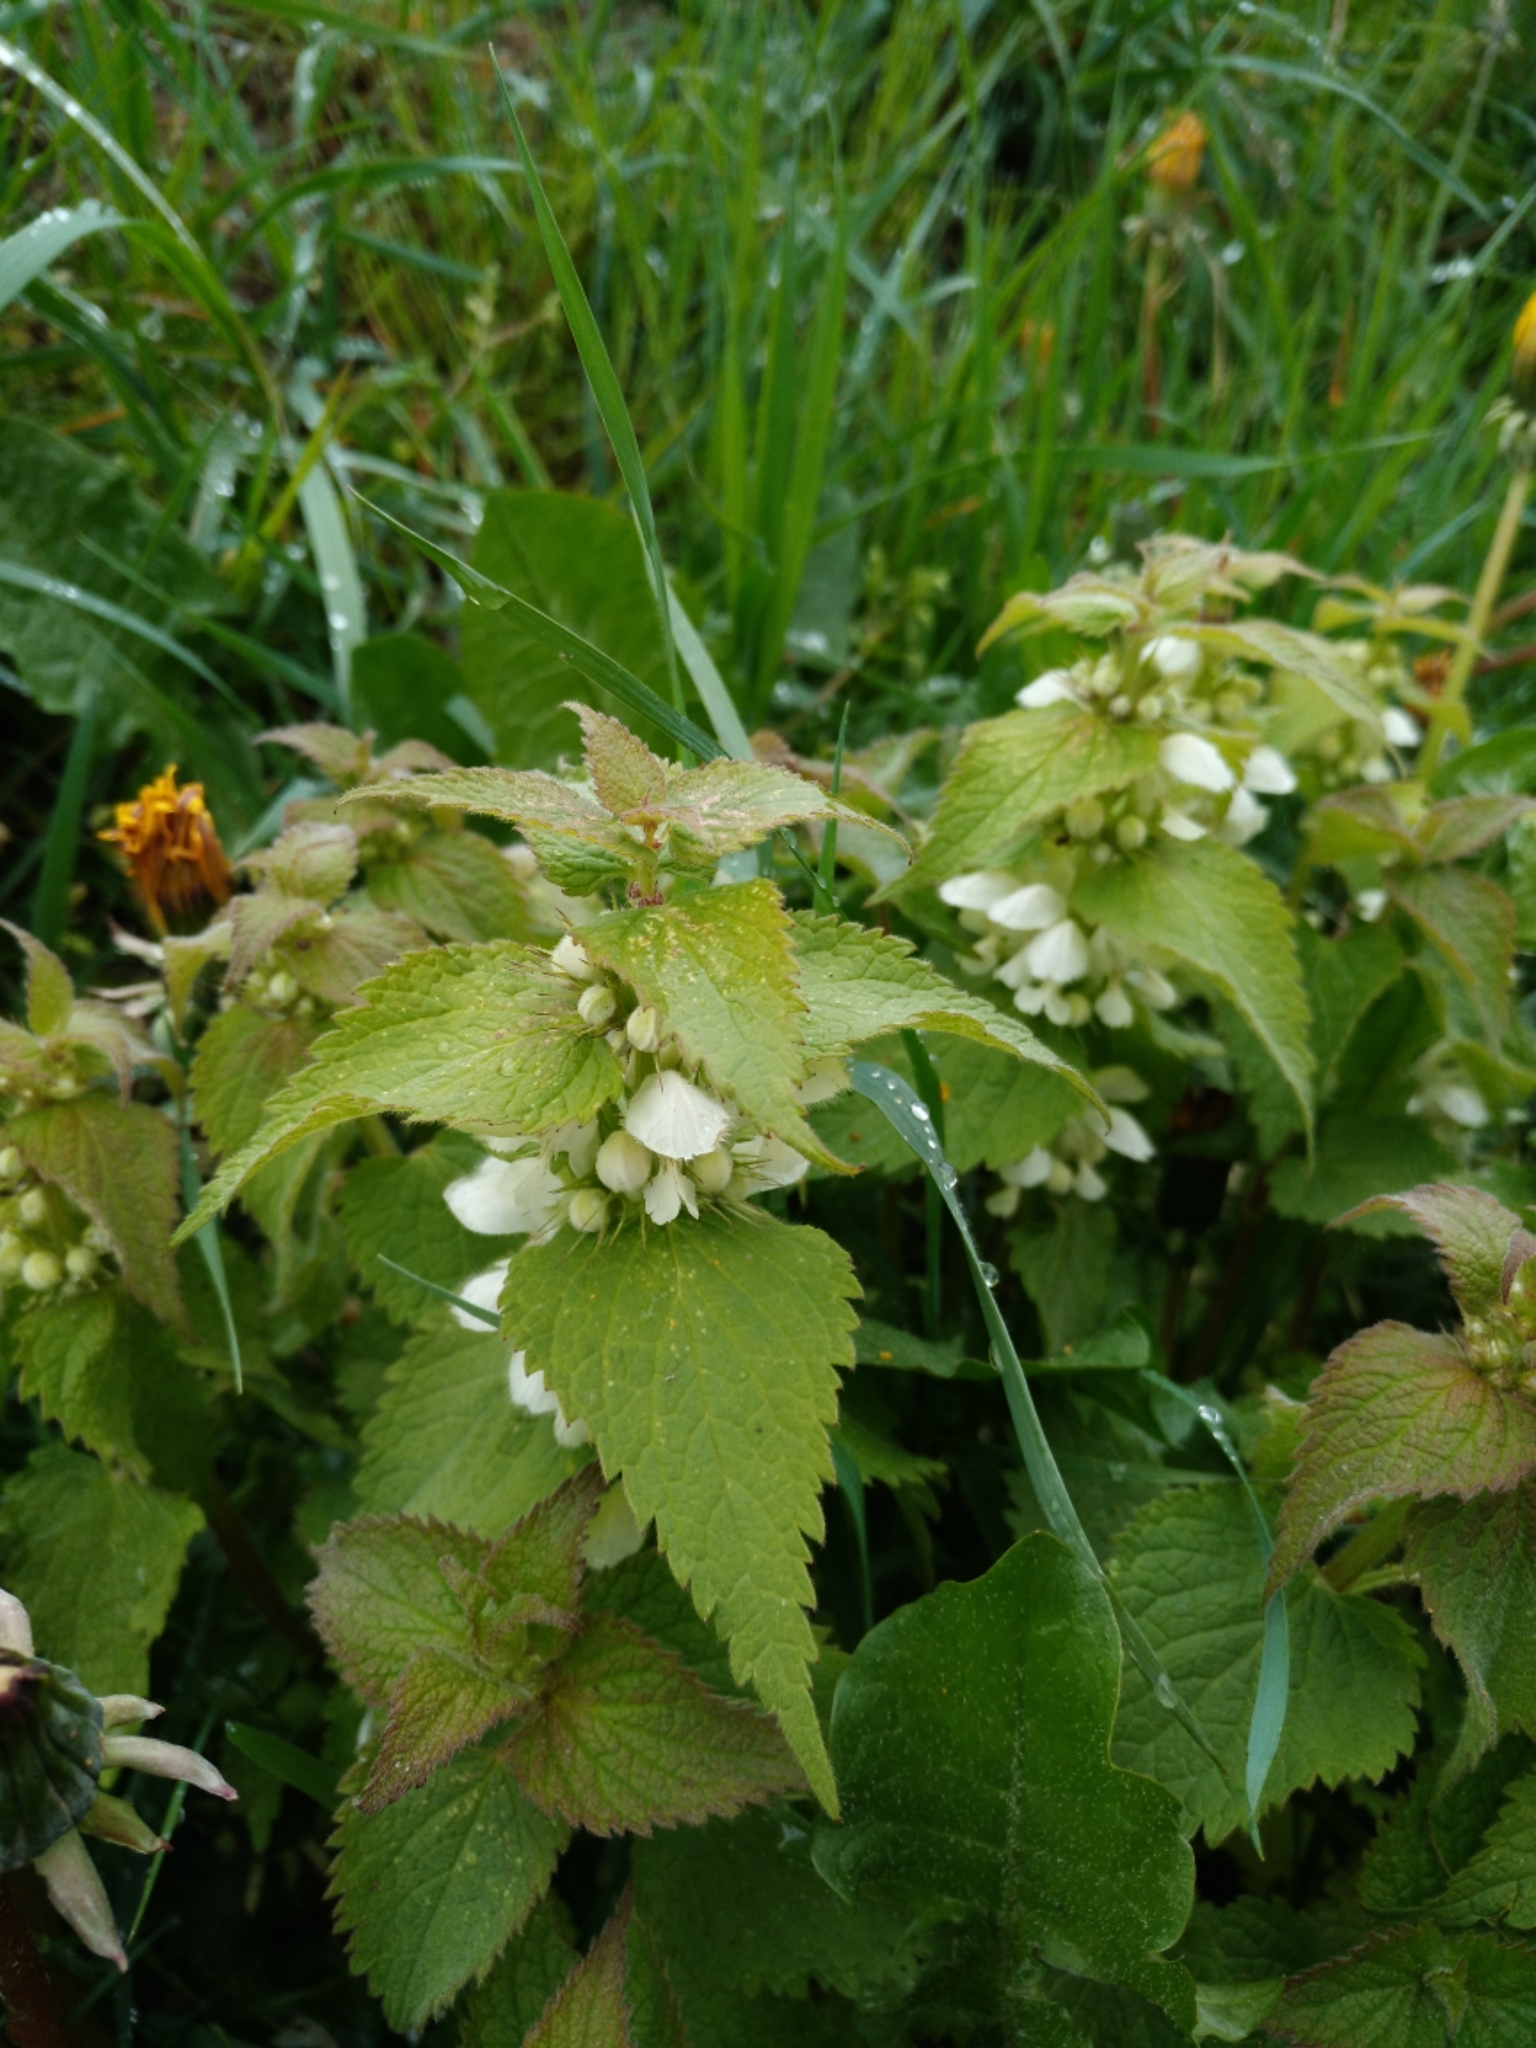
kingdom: Plantae
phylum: Tracheophyta
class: Magnoliopsida
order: Lamiales
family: Lamiaceae
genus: Lamium
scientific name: Lamium album
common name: White dead-nettle
